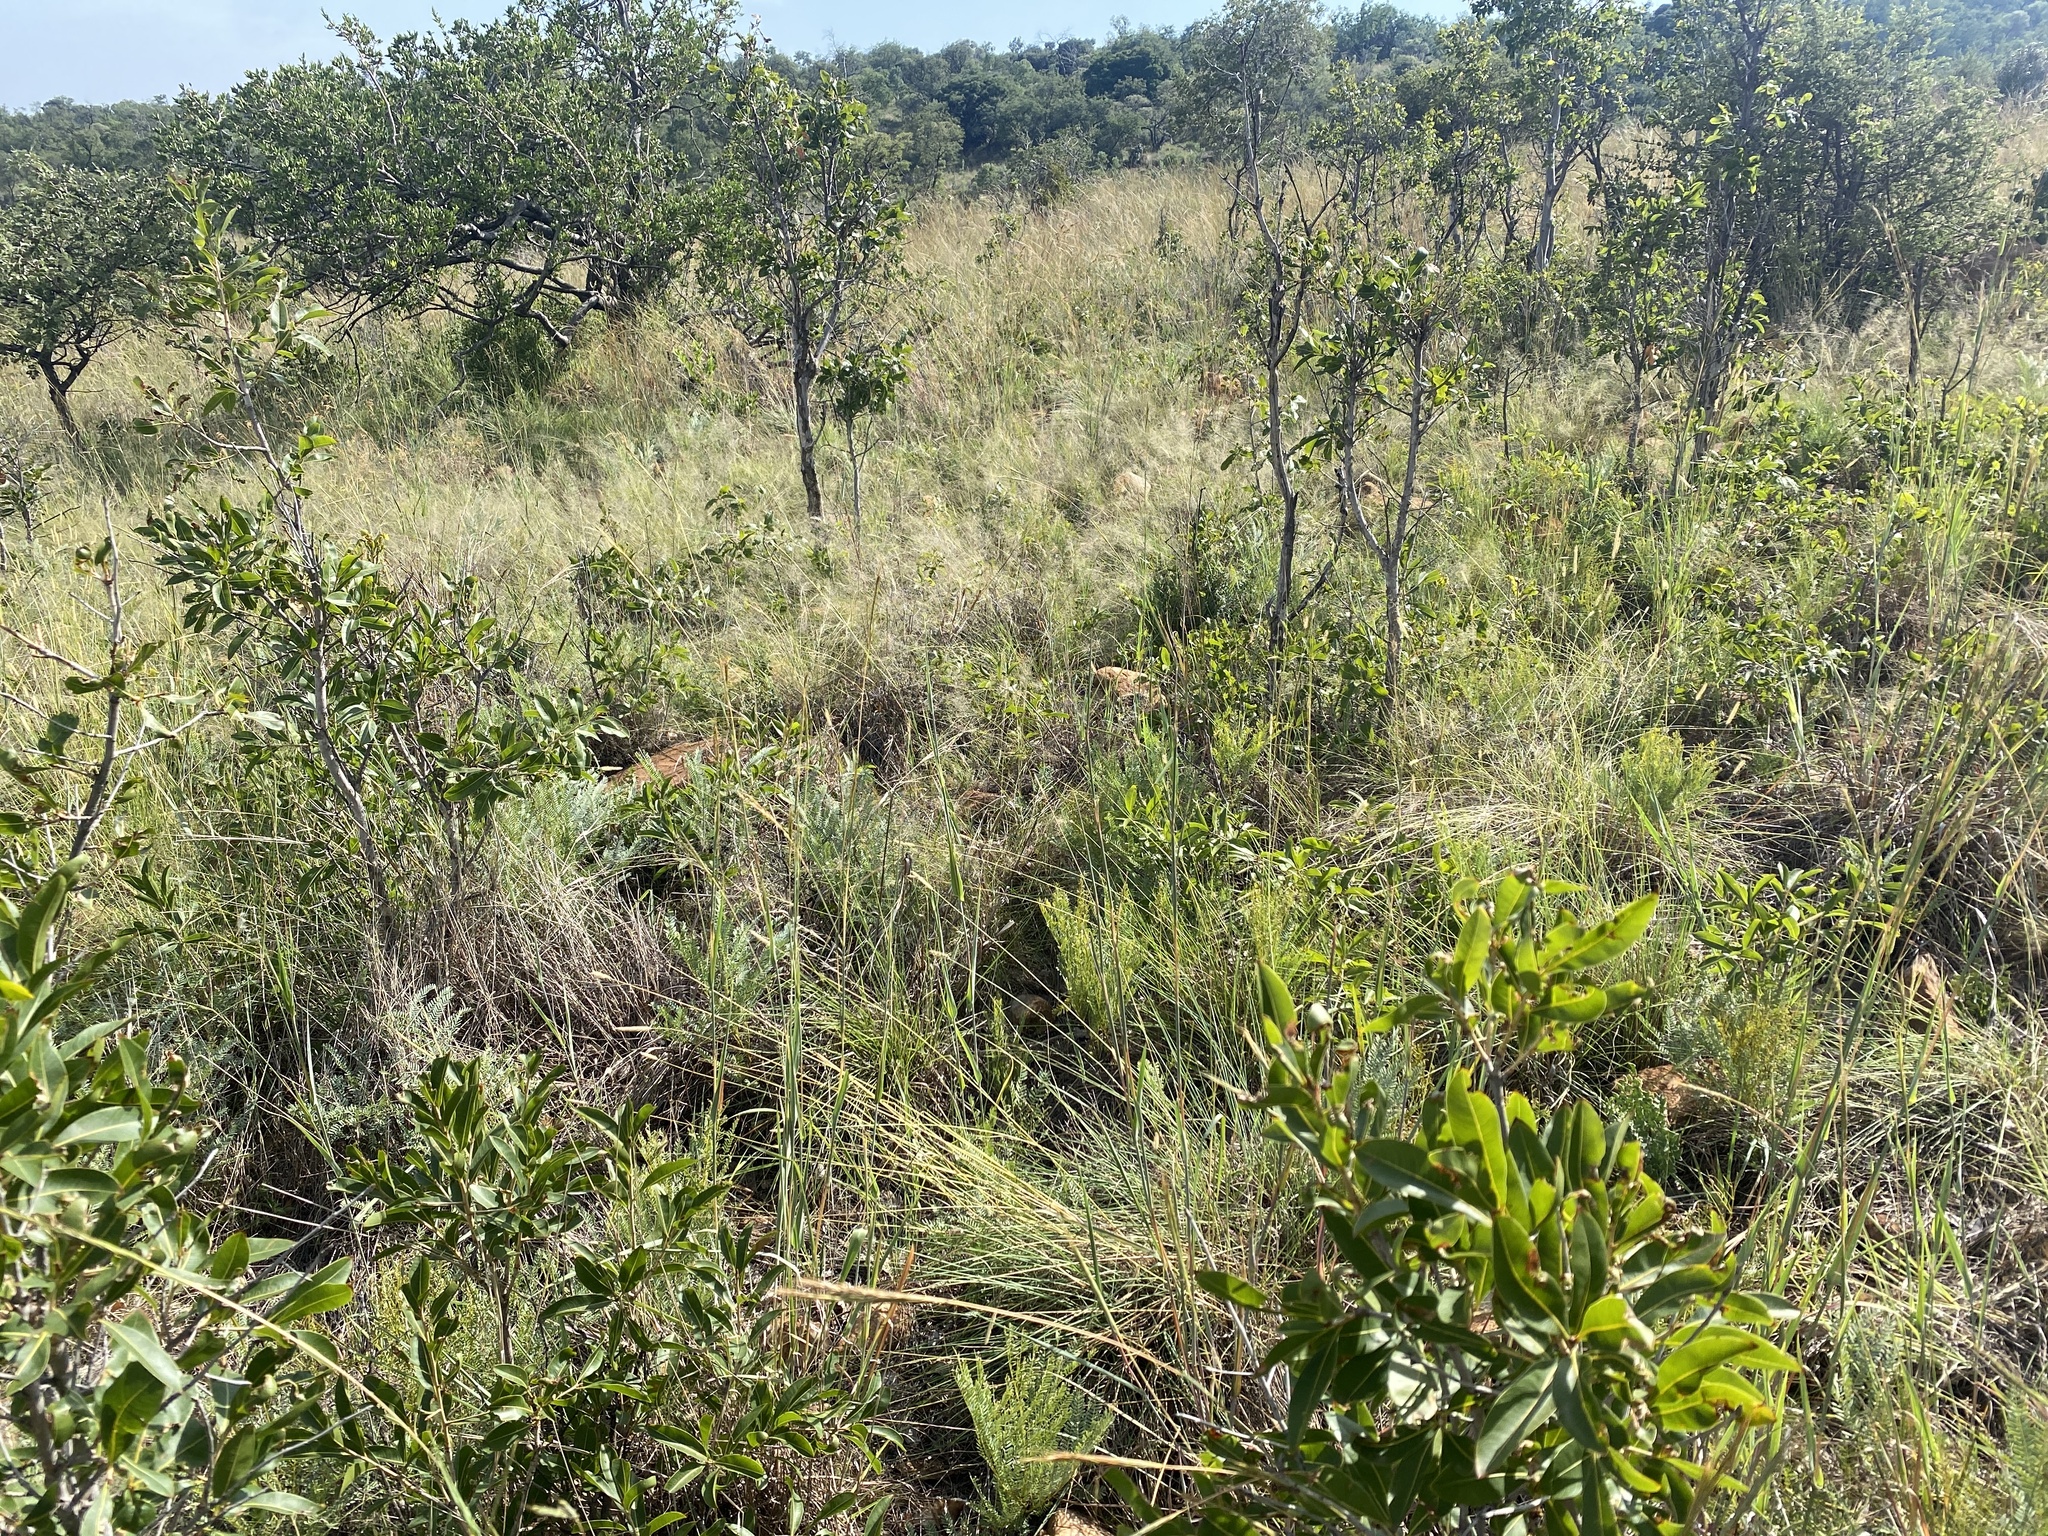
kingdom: Plantae
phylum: Tracheophyta
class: Magnoliopsida
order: Malpighiales
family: Ochnaceae
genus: Ochna
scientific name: Ochna pulchra
